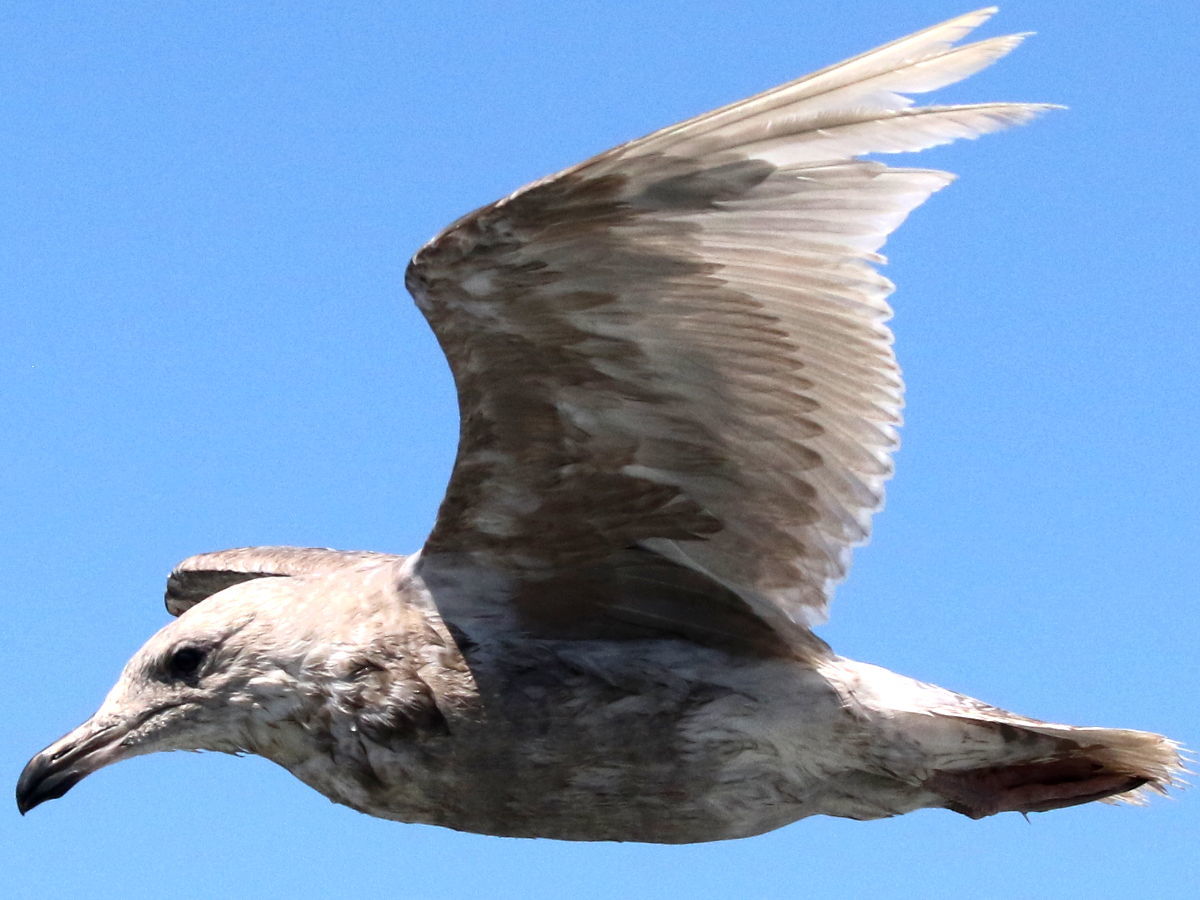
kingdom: Animalia
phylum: Chordata
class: Aves
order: Charadriiformes
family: Laridae
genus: Larus
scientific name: Larus glaucescens
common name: Glaucous-winged gull
